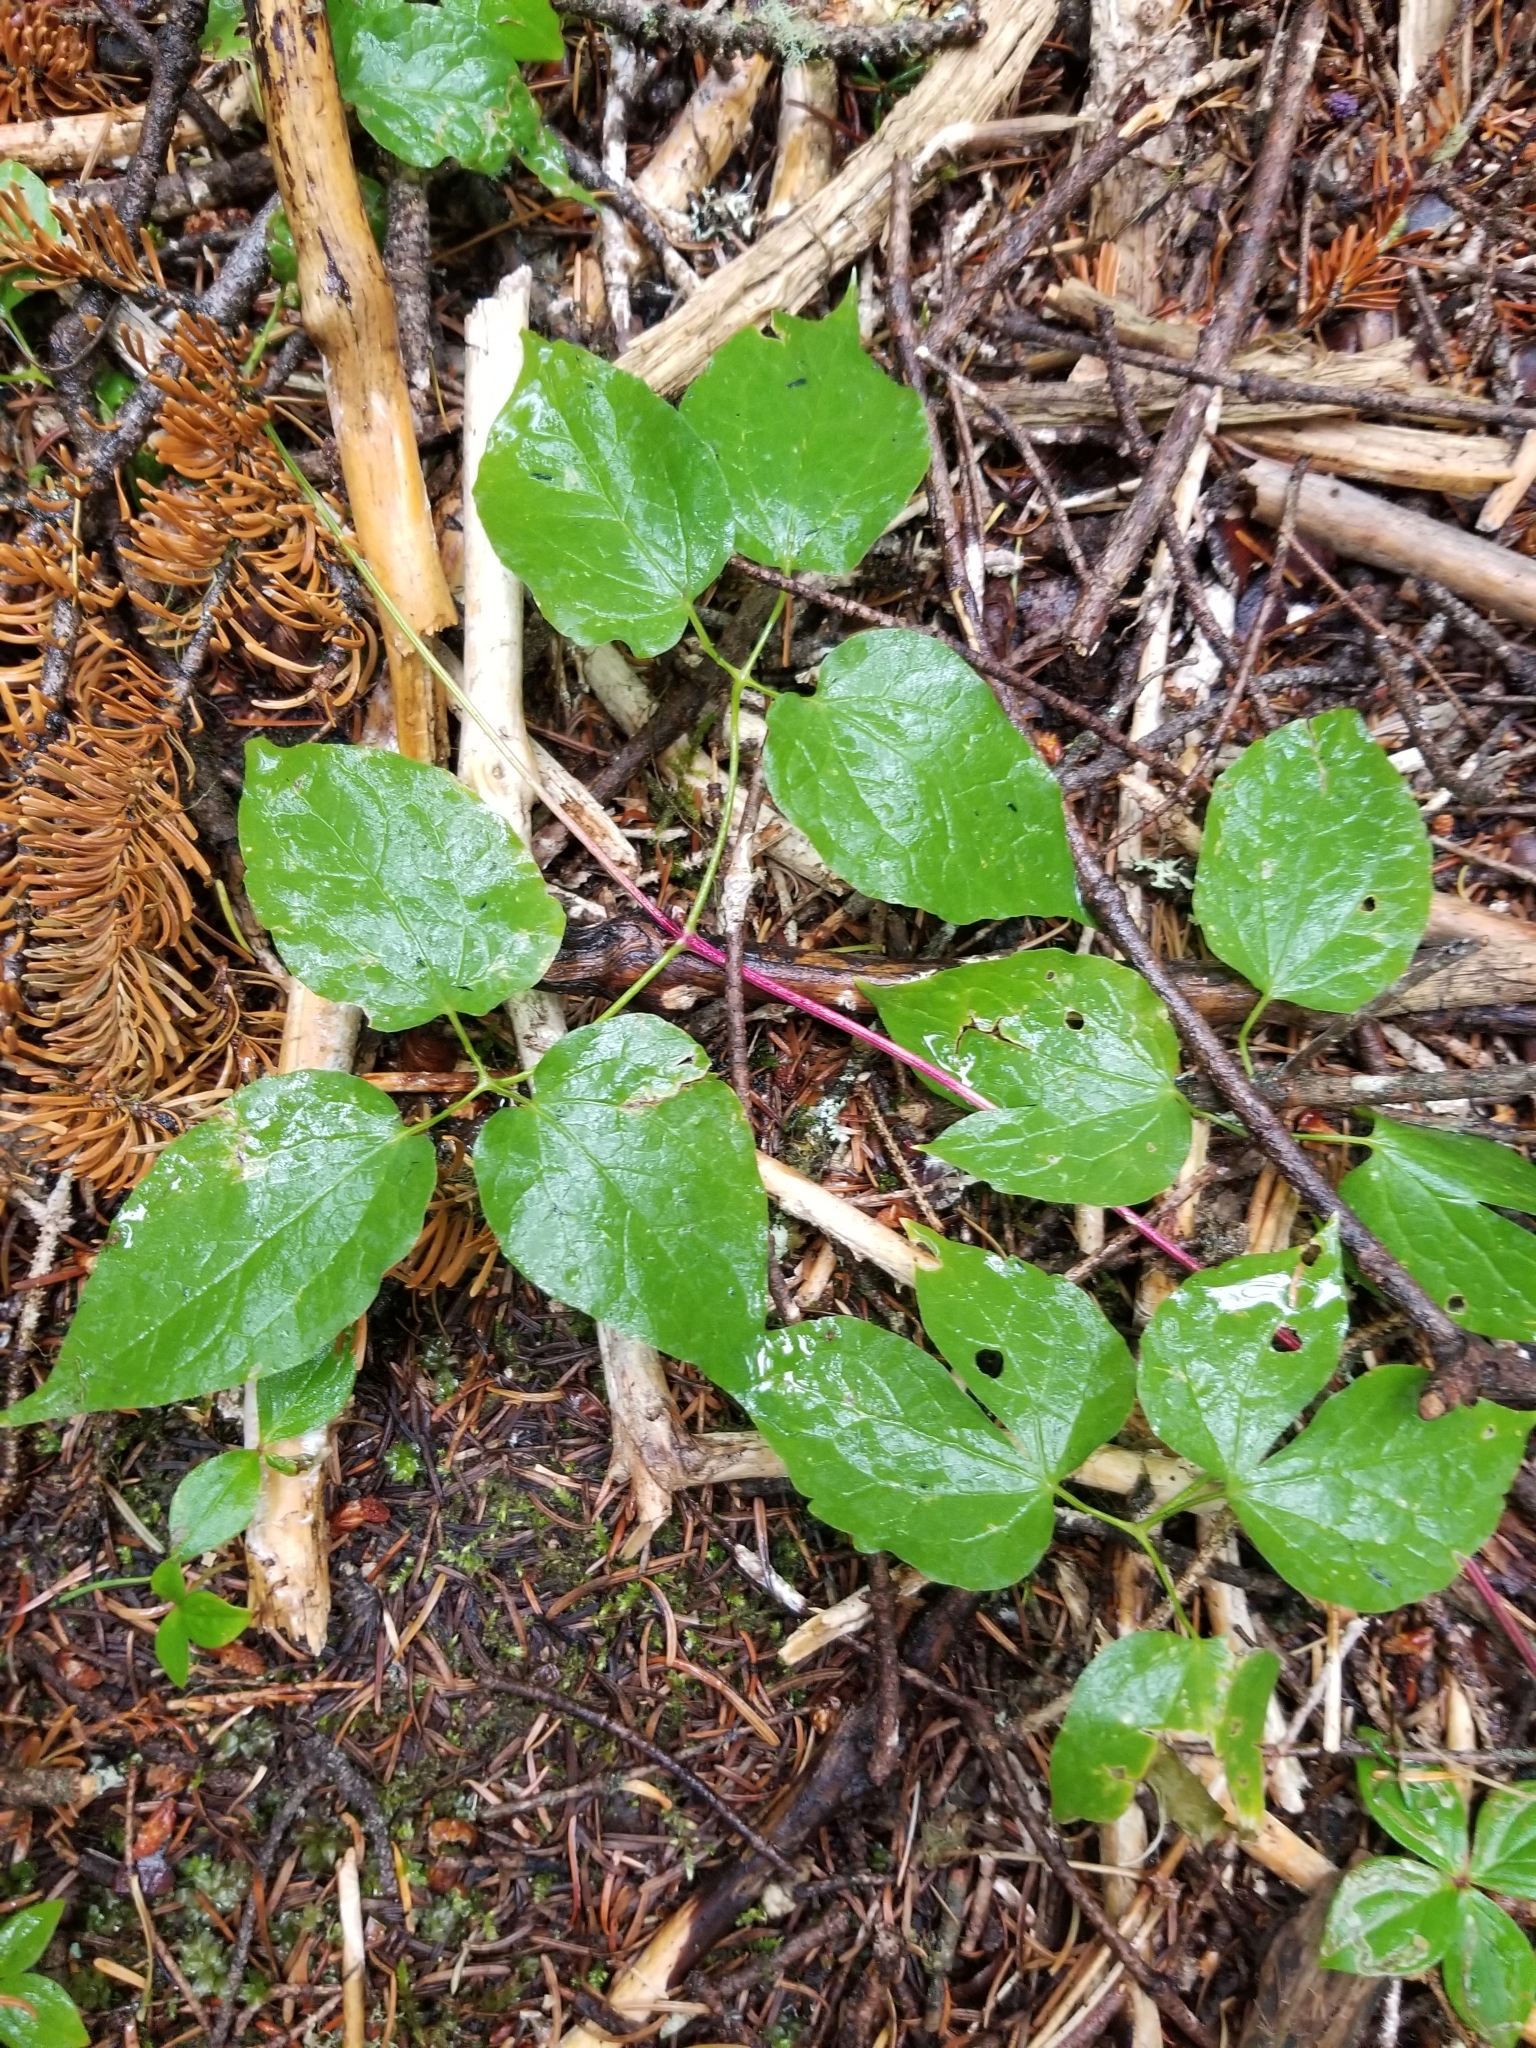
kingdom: Plantae
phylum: Tracheophyta
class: Magnoliopsida
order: Ranunculales
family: Ranunculaceae
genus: Clematis
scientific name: Clematis occidentalis
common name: Purple clematis
